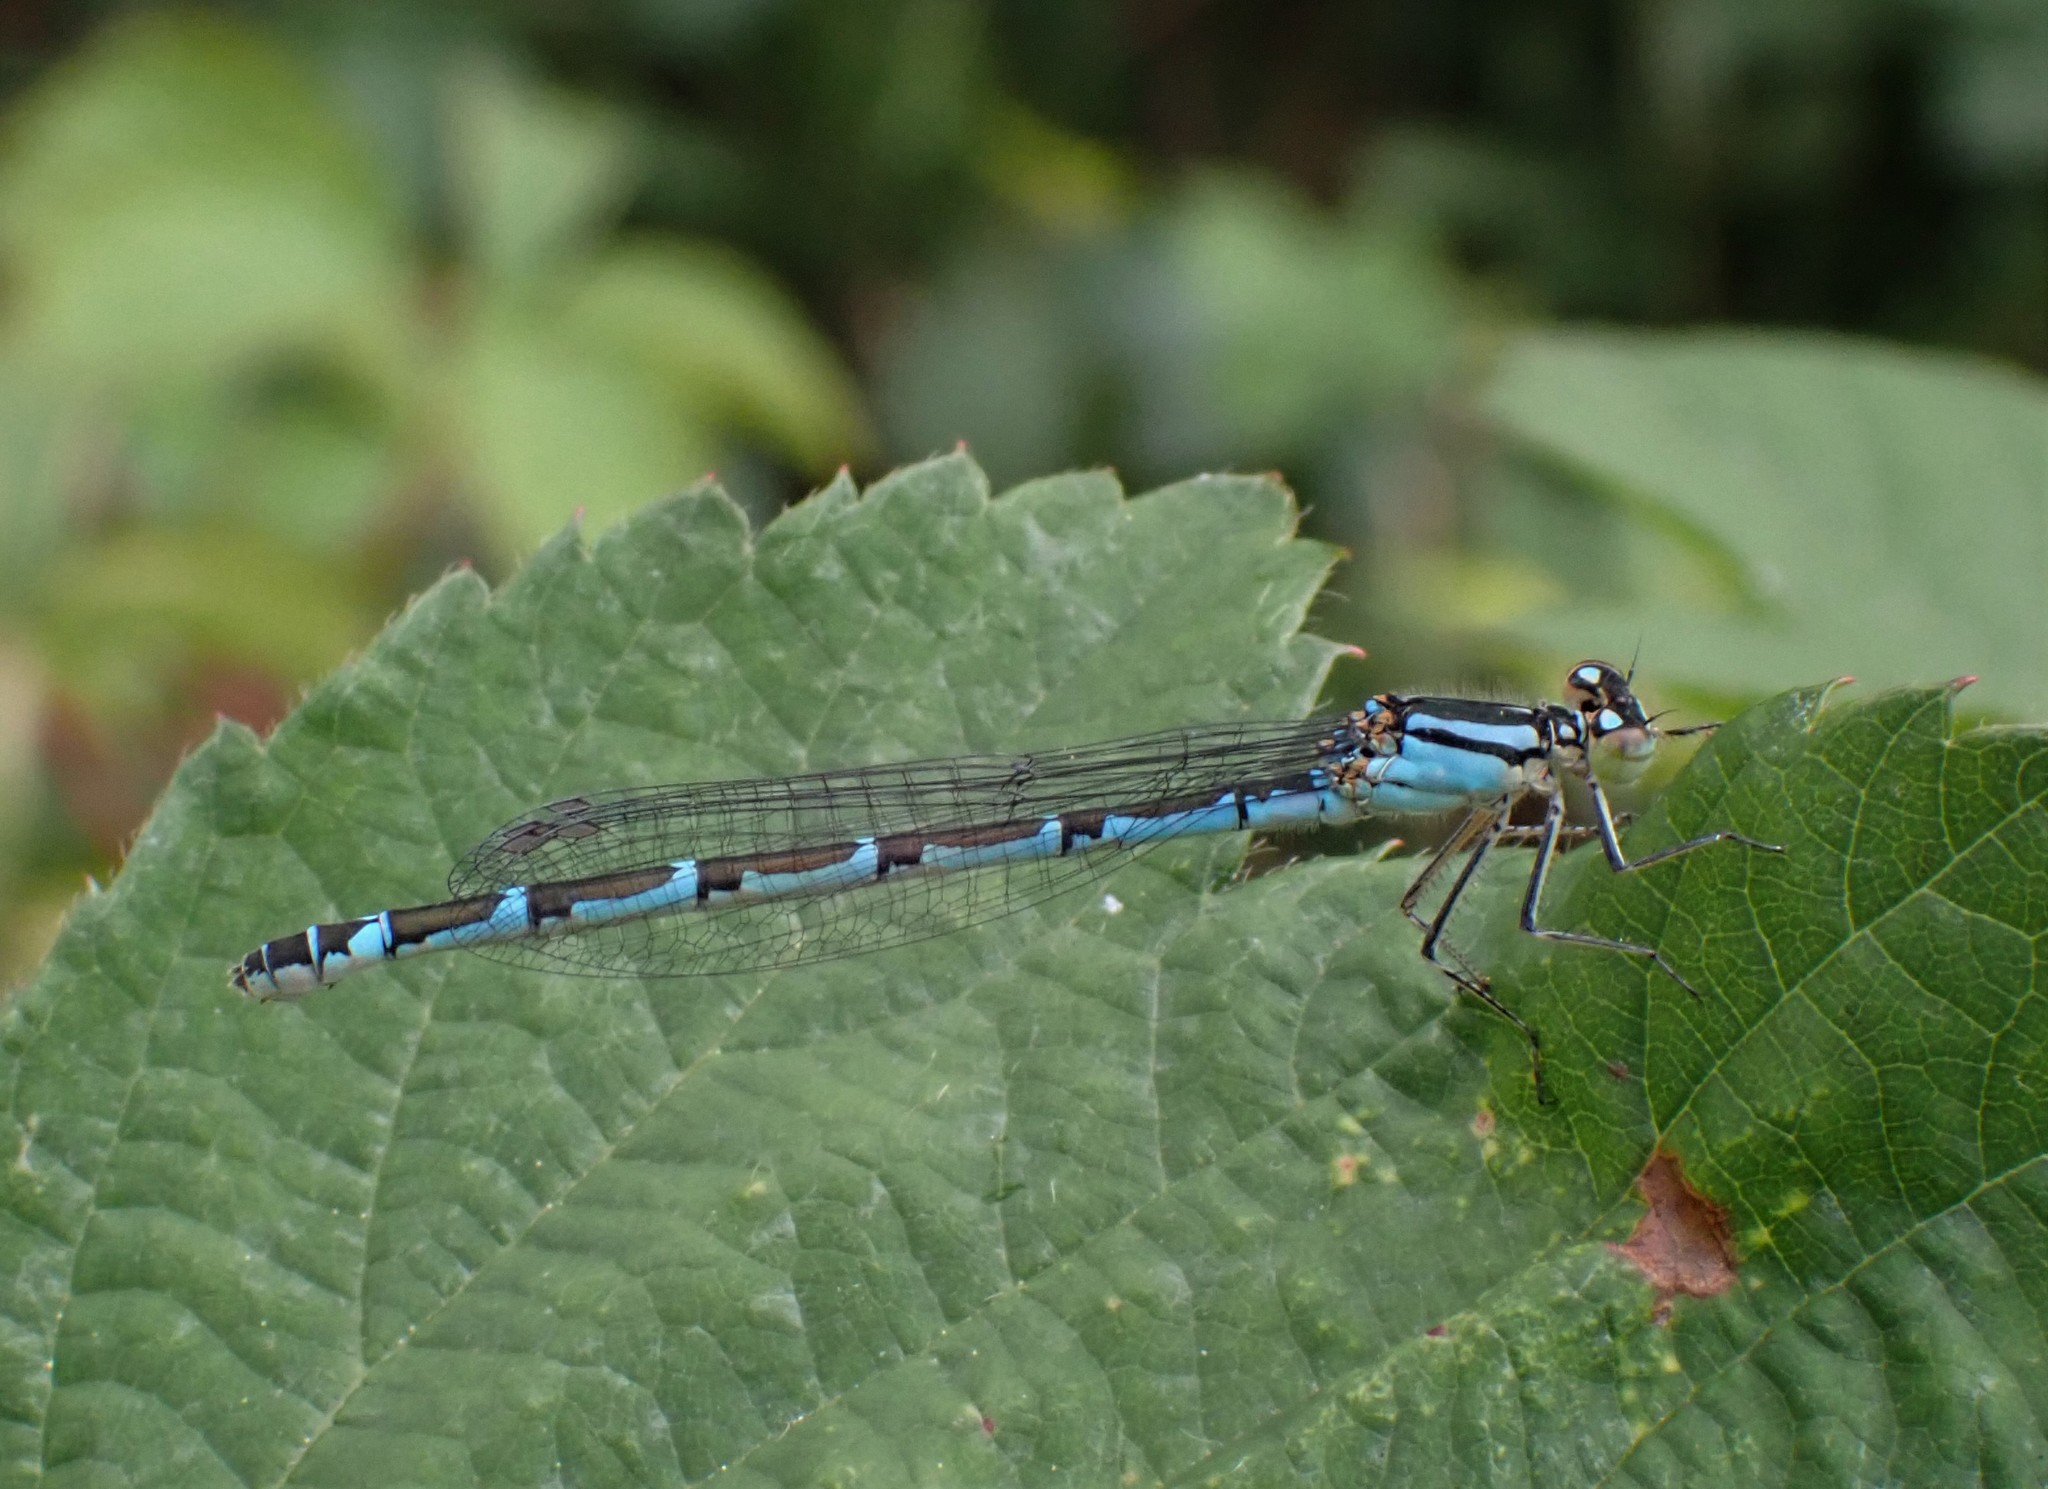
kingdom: Animalia
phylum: Arthropoda
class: Insecta
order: Odonata
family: Coenagrionidae
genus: Enallagma
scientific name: Enallagma cyathigerum
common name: Common blue damselfly
